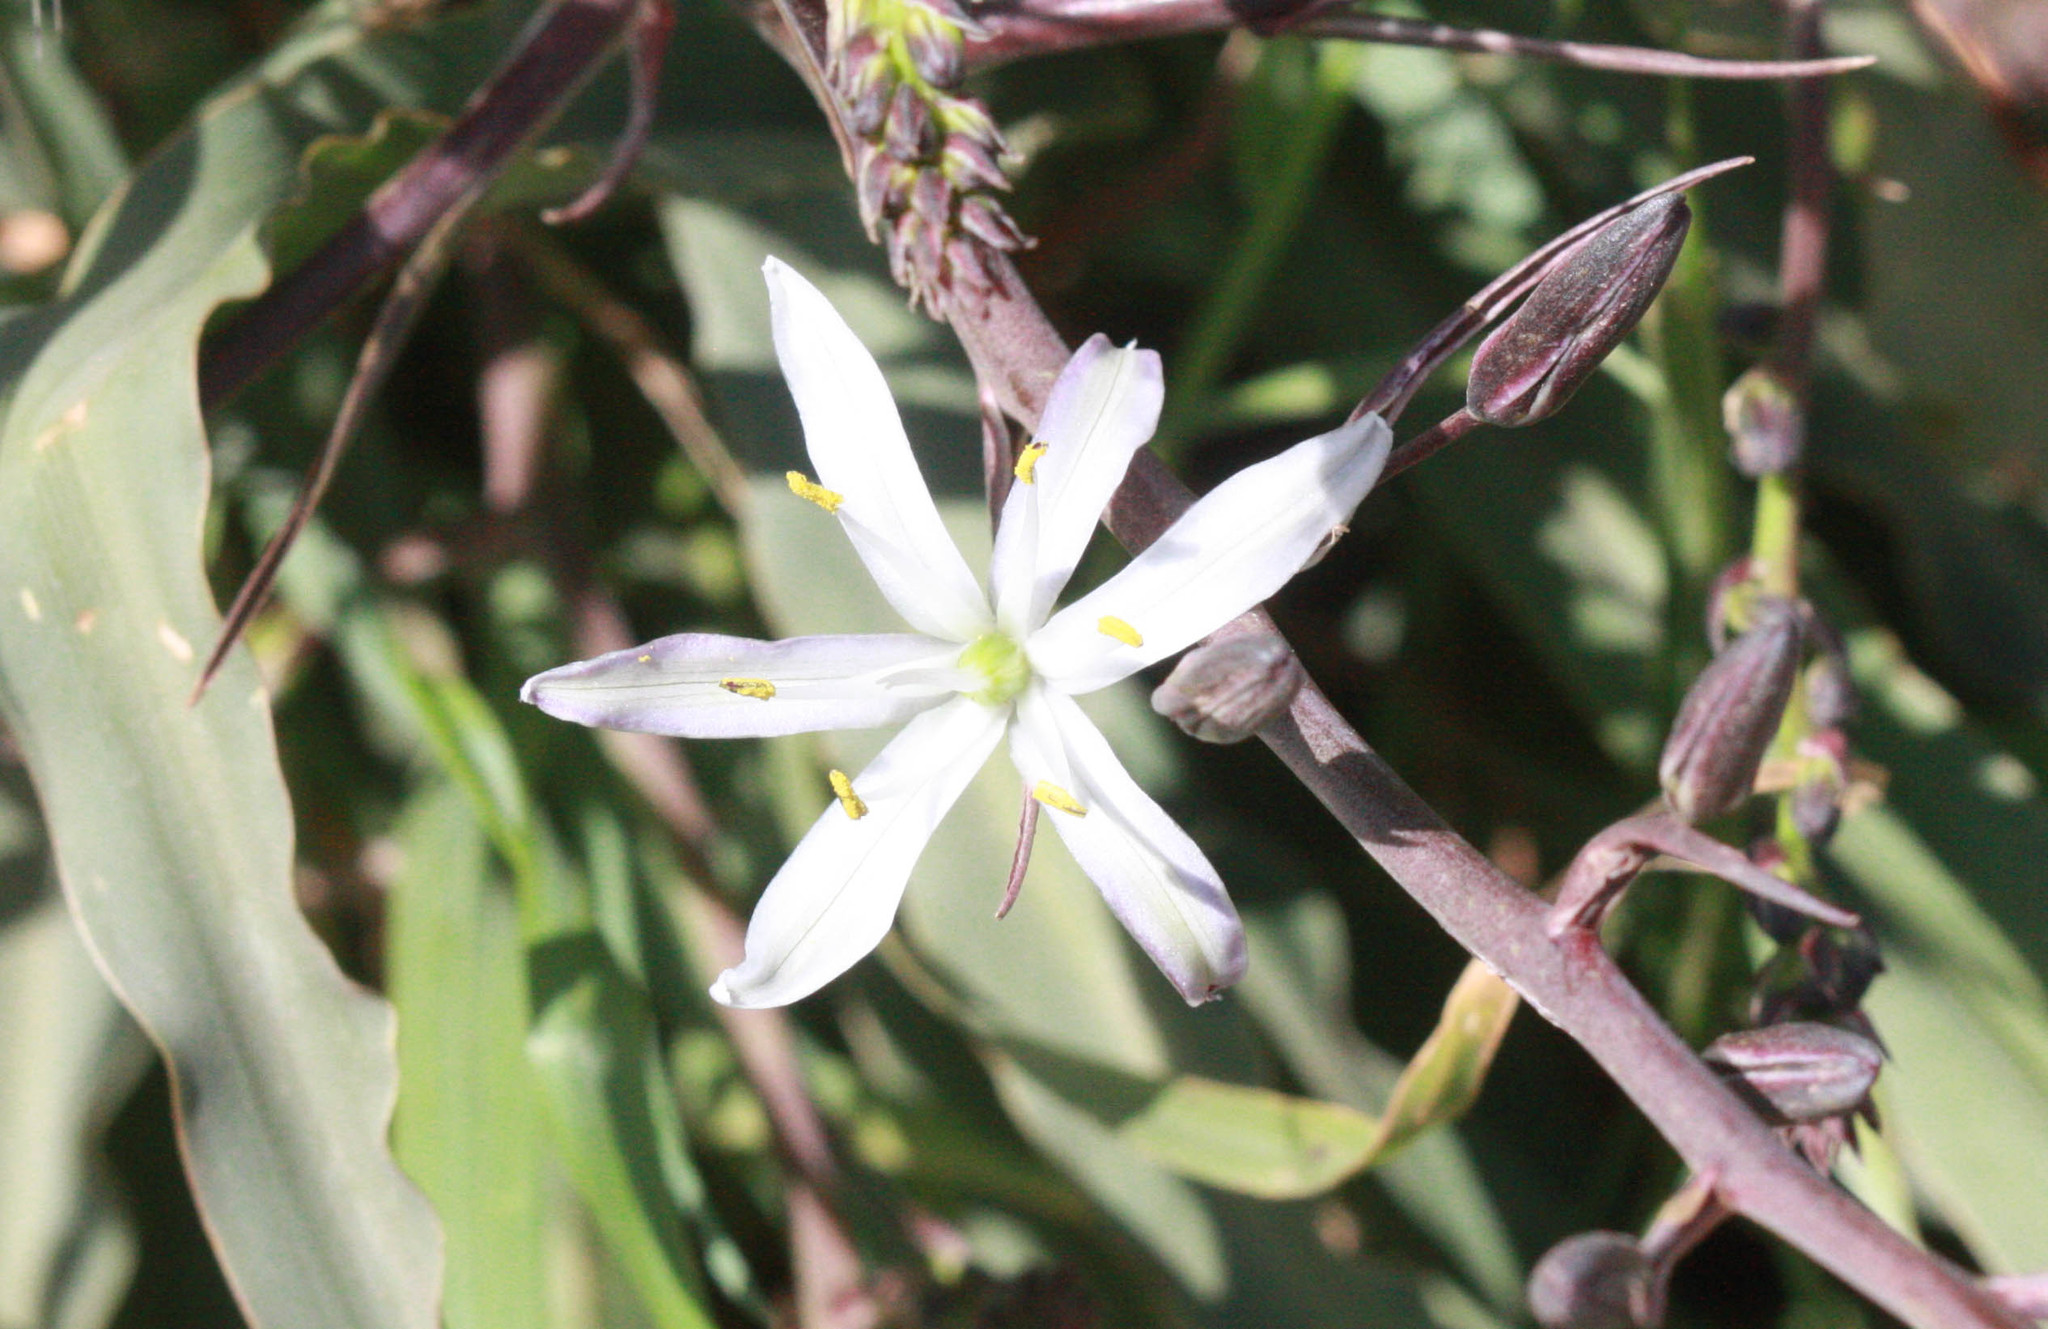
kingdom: Plantae
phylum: Tracheophyta
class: Liliopsida
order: Asparagales
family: Asparagaceae
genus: Chlorogalum
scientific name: Chlorogalum pomeridianum
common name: Amole
